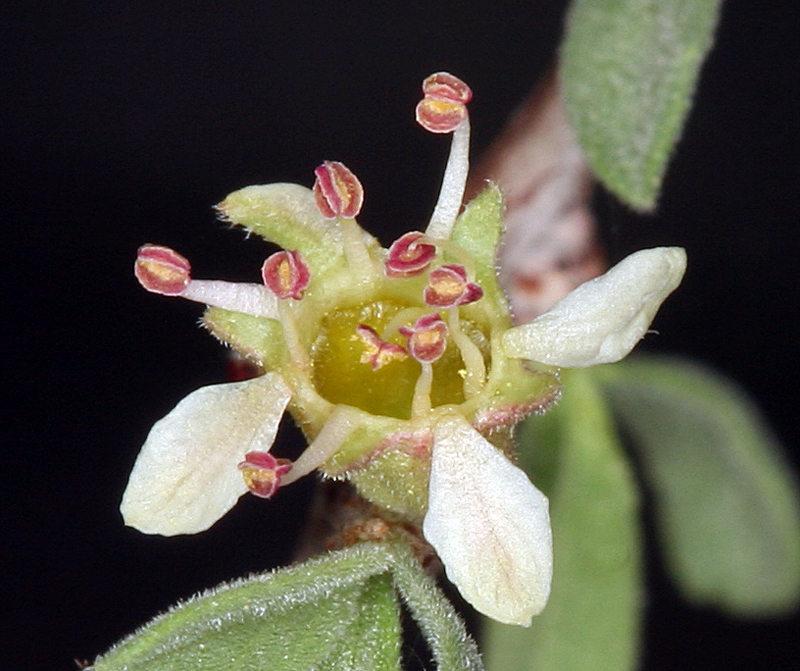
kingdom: Plantae
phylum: Tracheophyta
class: Magnoliopsida
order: Rosales
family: Rosaceae
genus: Prunus
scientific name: Prunus fasciculata
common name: Desert almond
